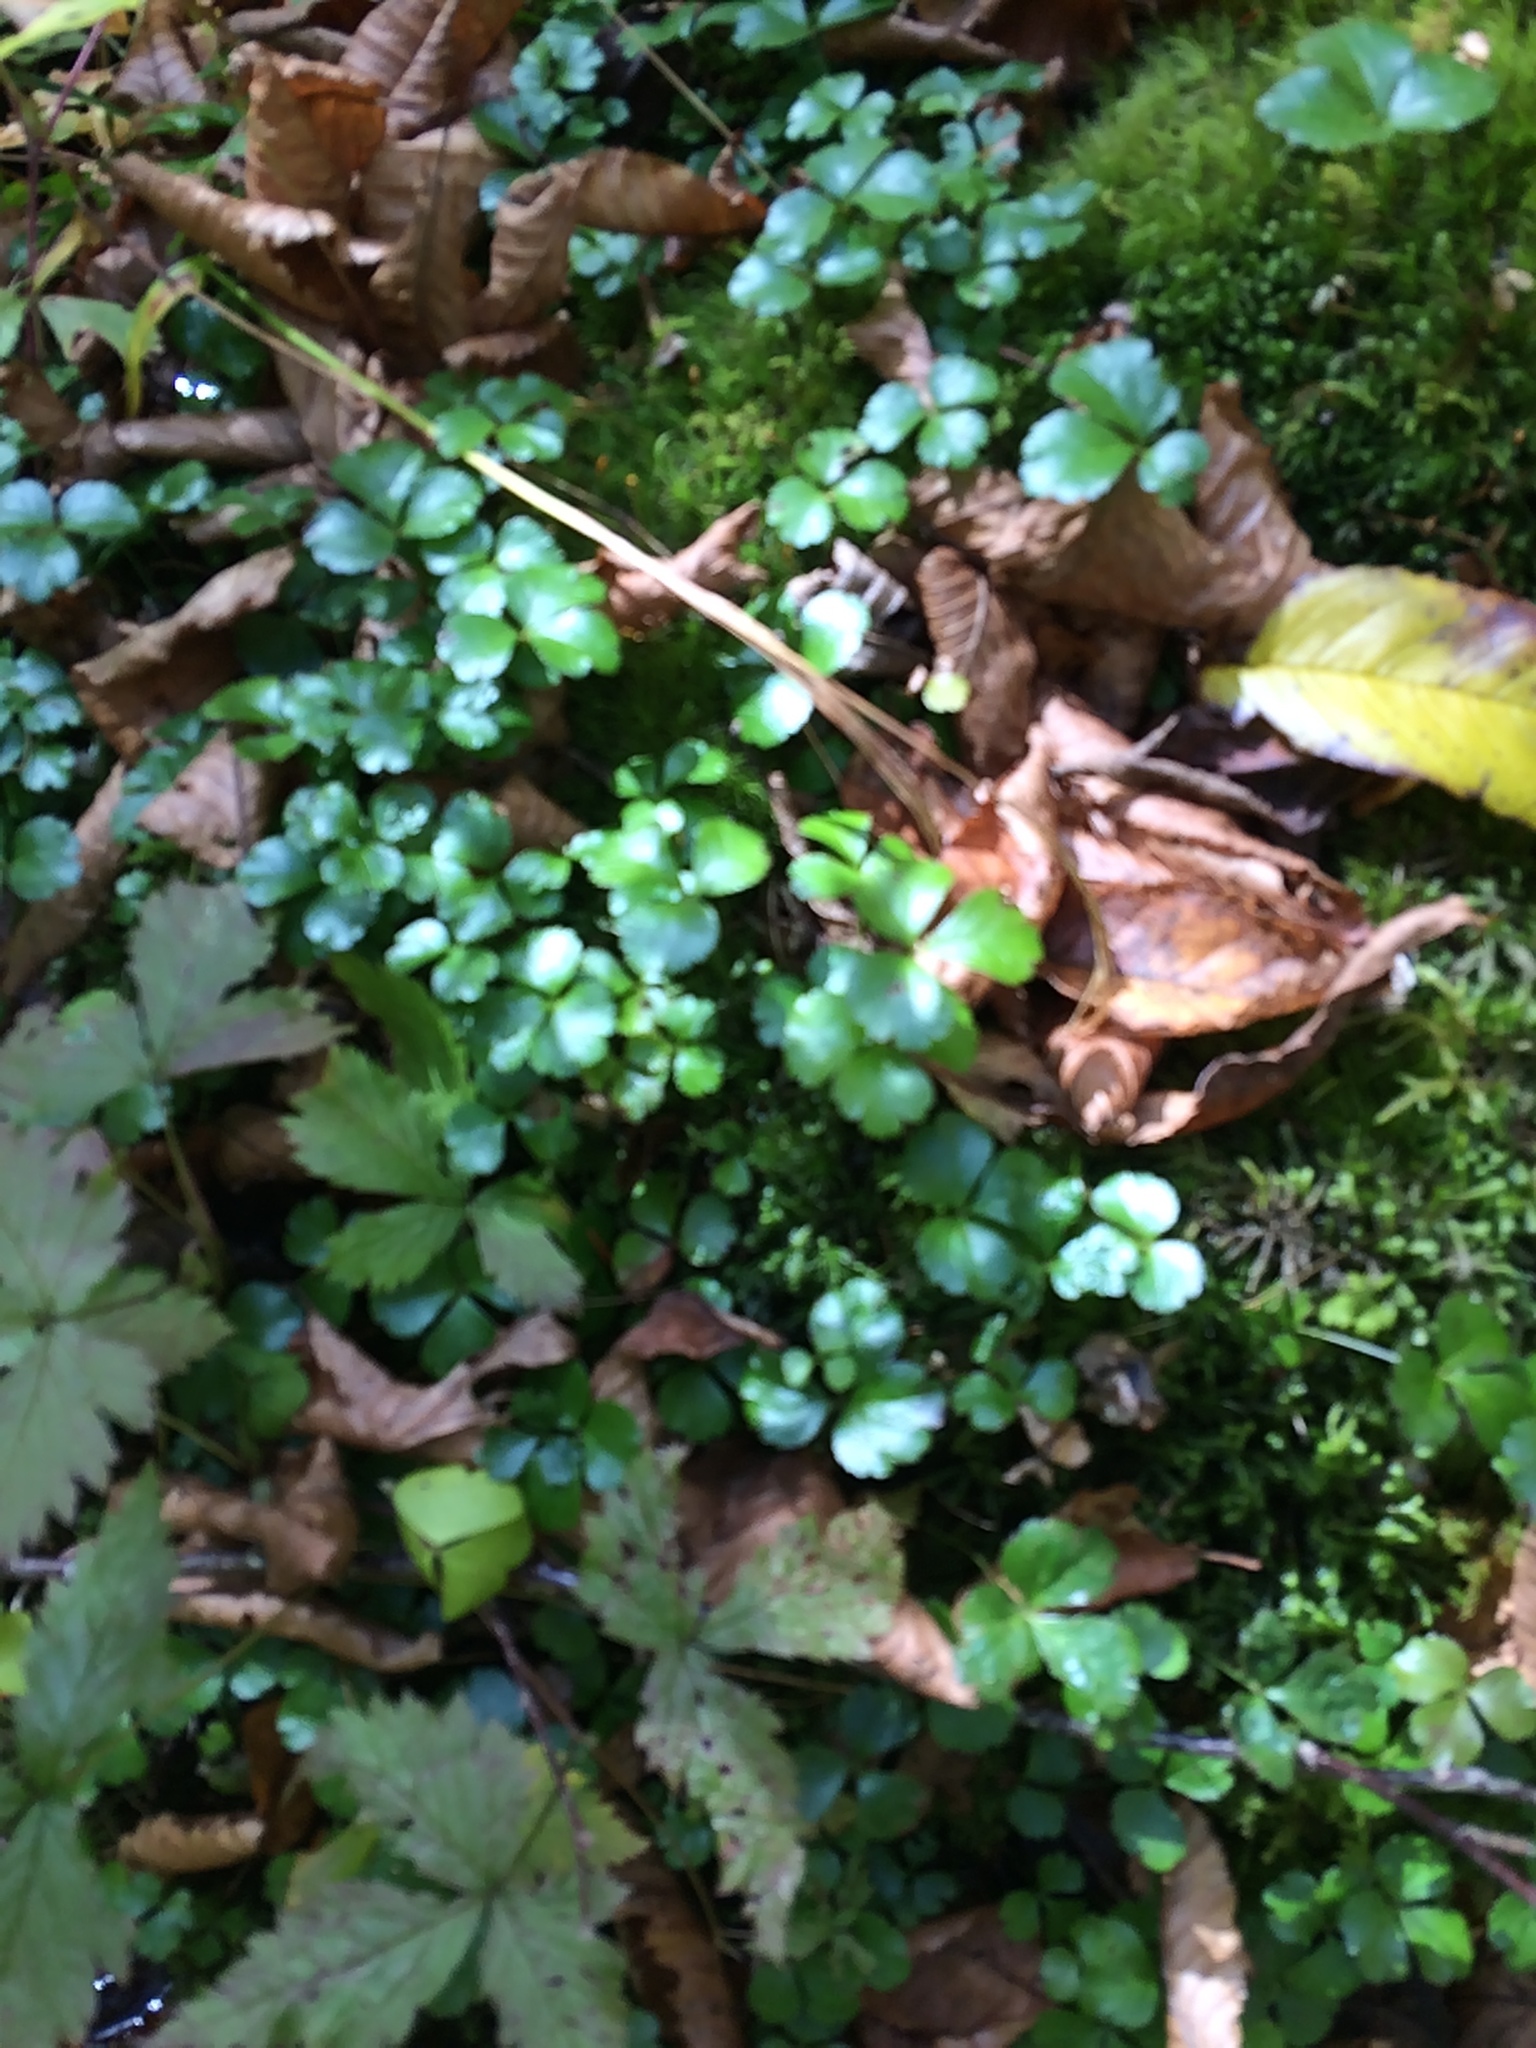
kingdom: Plantae
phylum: Tracheophyta
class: Magnoliopsida
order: Ranunculales
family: Ranunculaceae
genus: Coptis
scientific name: Coptis trifolia
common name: Canker-root
